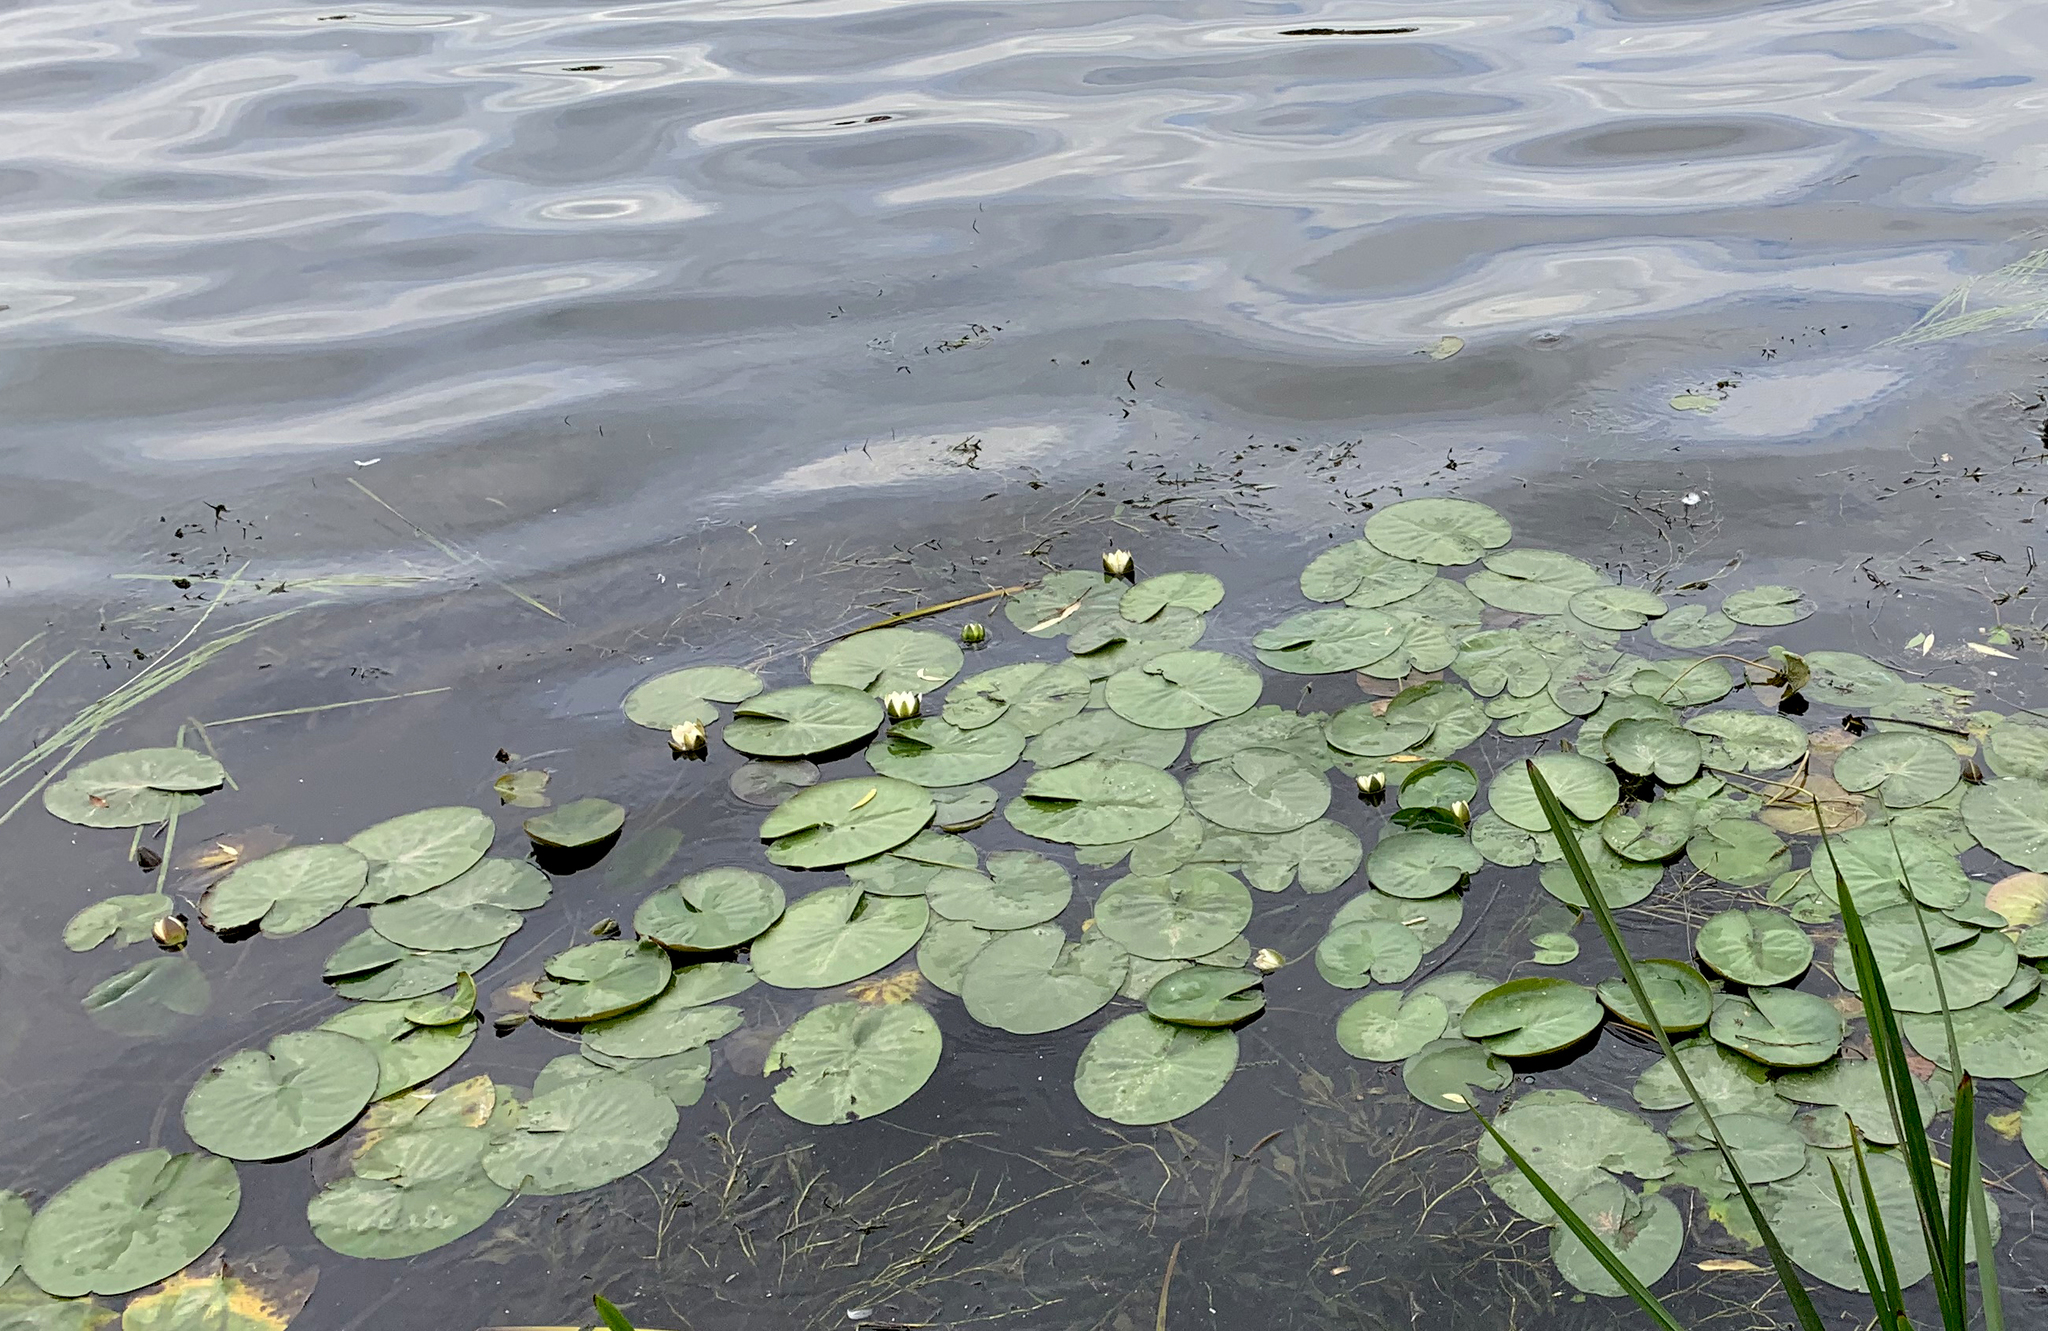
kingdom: Plantae
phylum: Tracheophyta
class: Magnoliopsida
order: Nymphaeales
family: Nymphaeaceae
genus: Nymphaea
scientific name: Nymphaea candida
